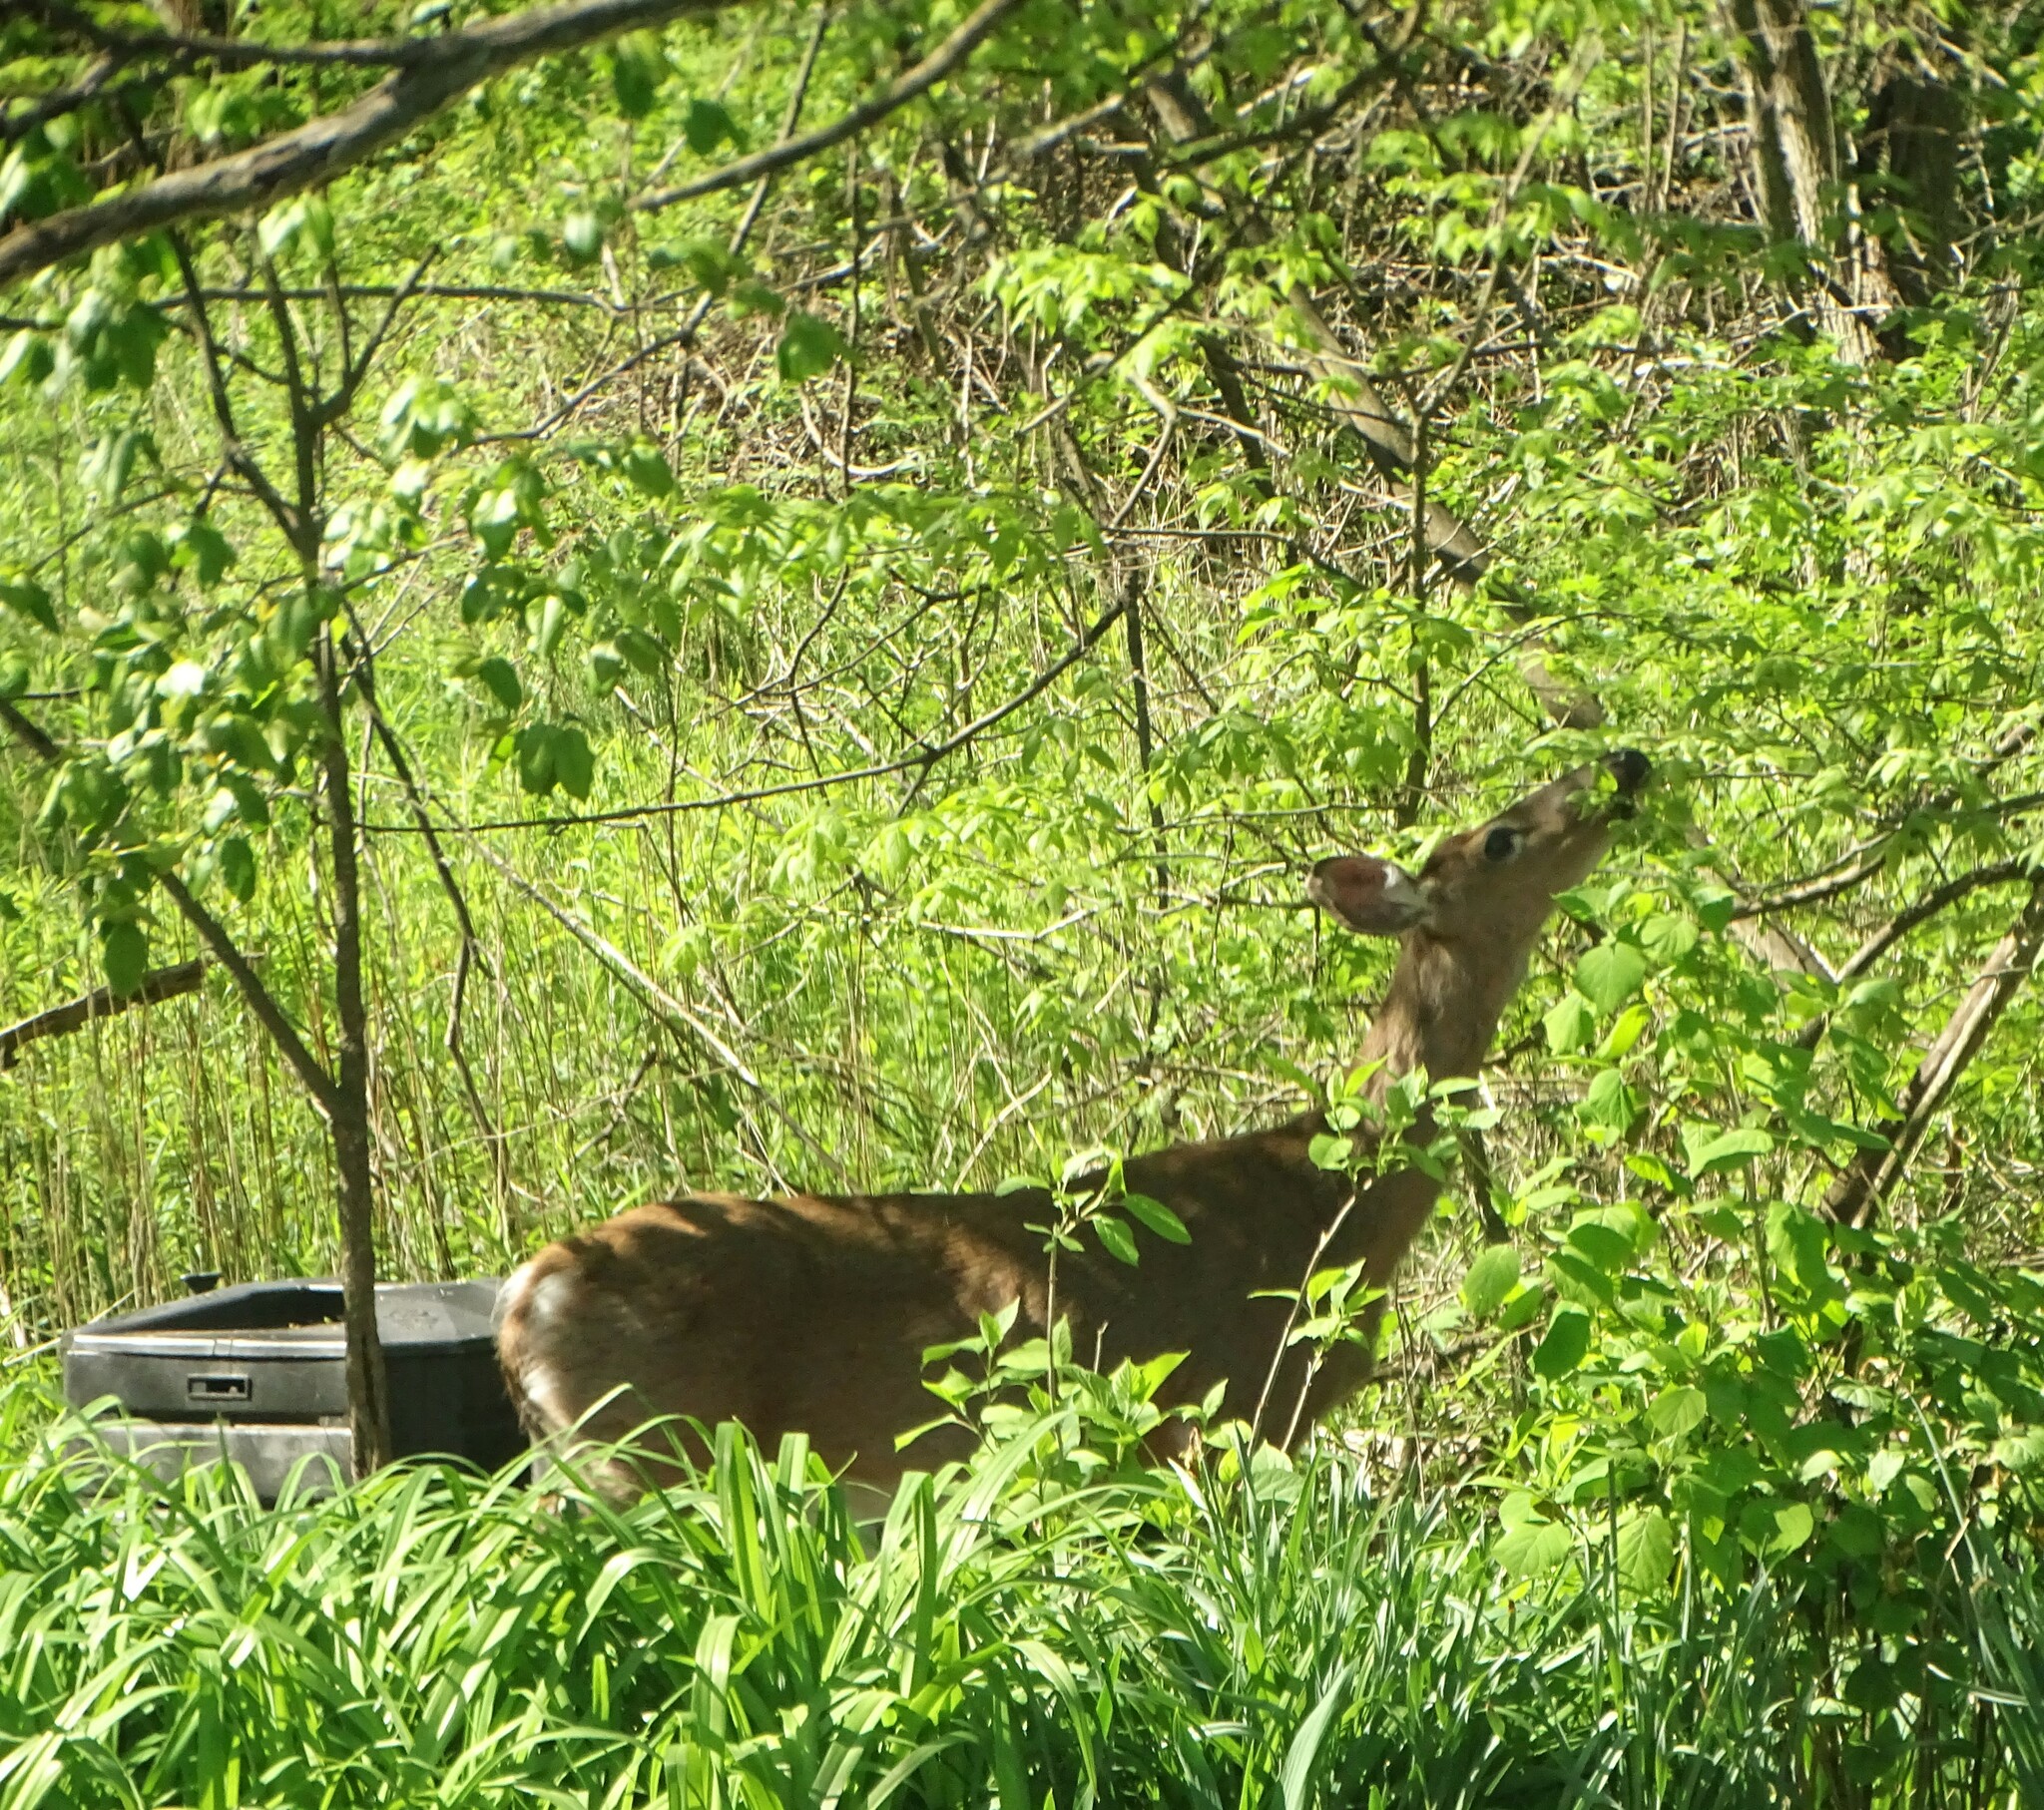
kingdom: Animalia
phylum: Chordata
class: Mammalia
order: Artiodactyla
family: Cervidae
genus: Odocoileus
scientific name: Odocoileus virginianus
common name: White-tailed deer
